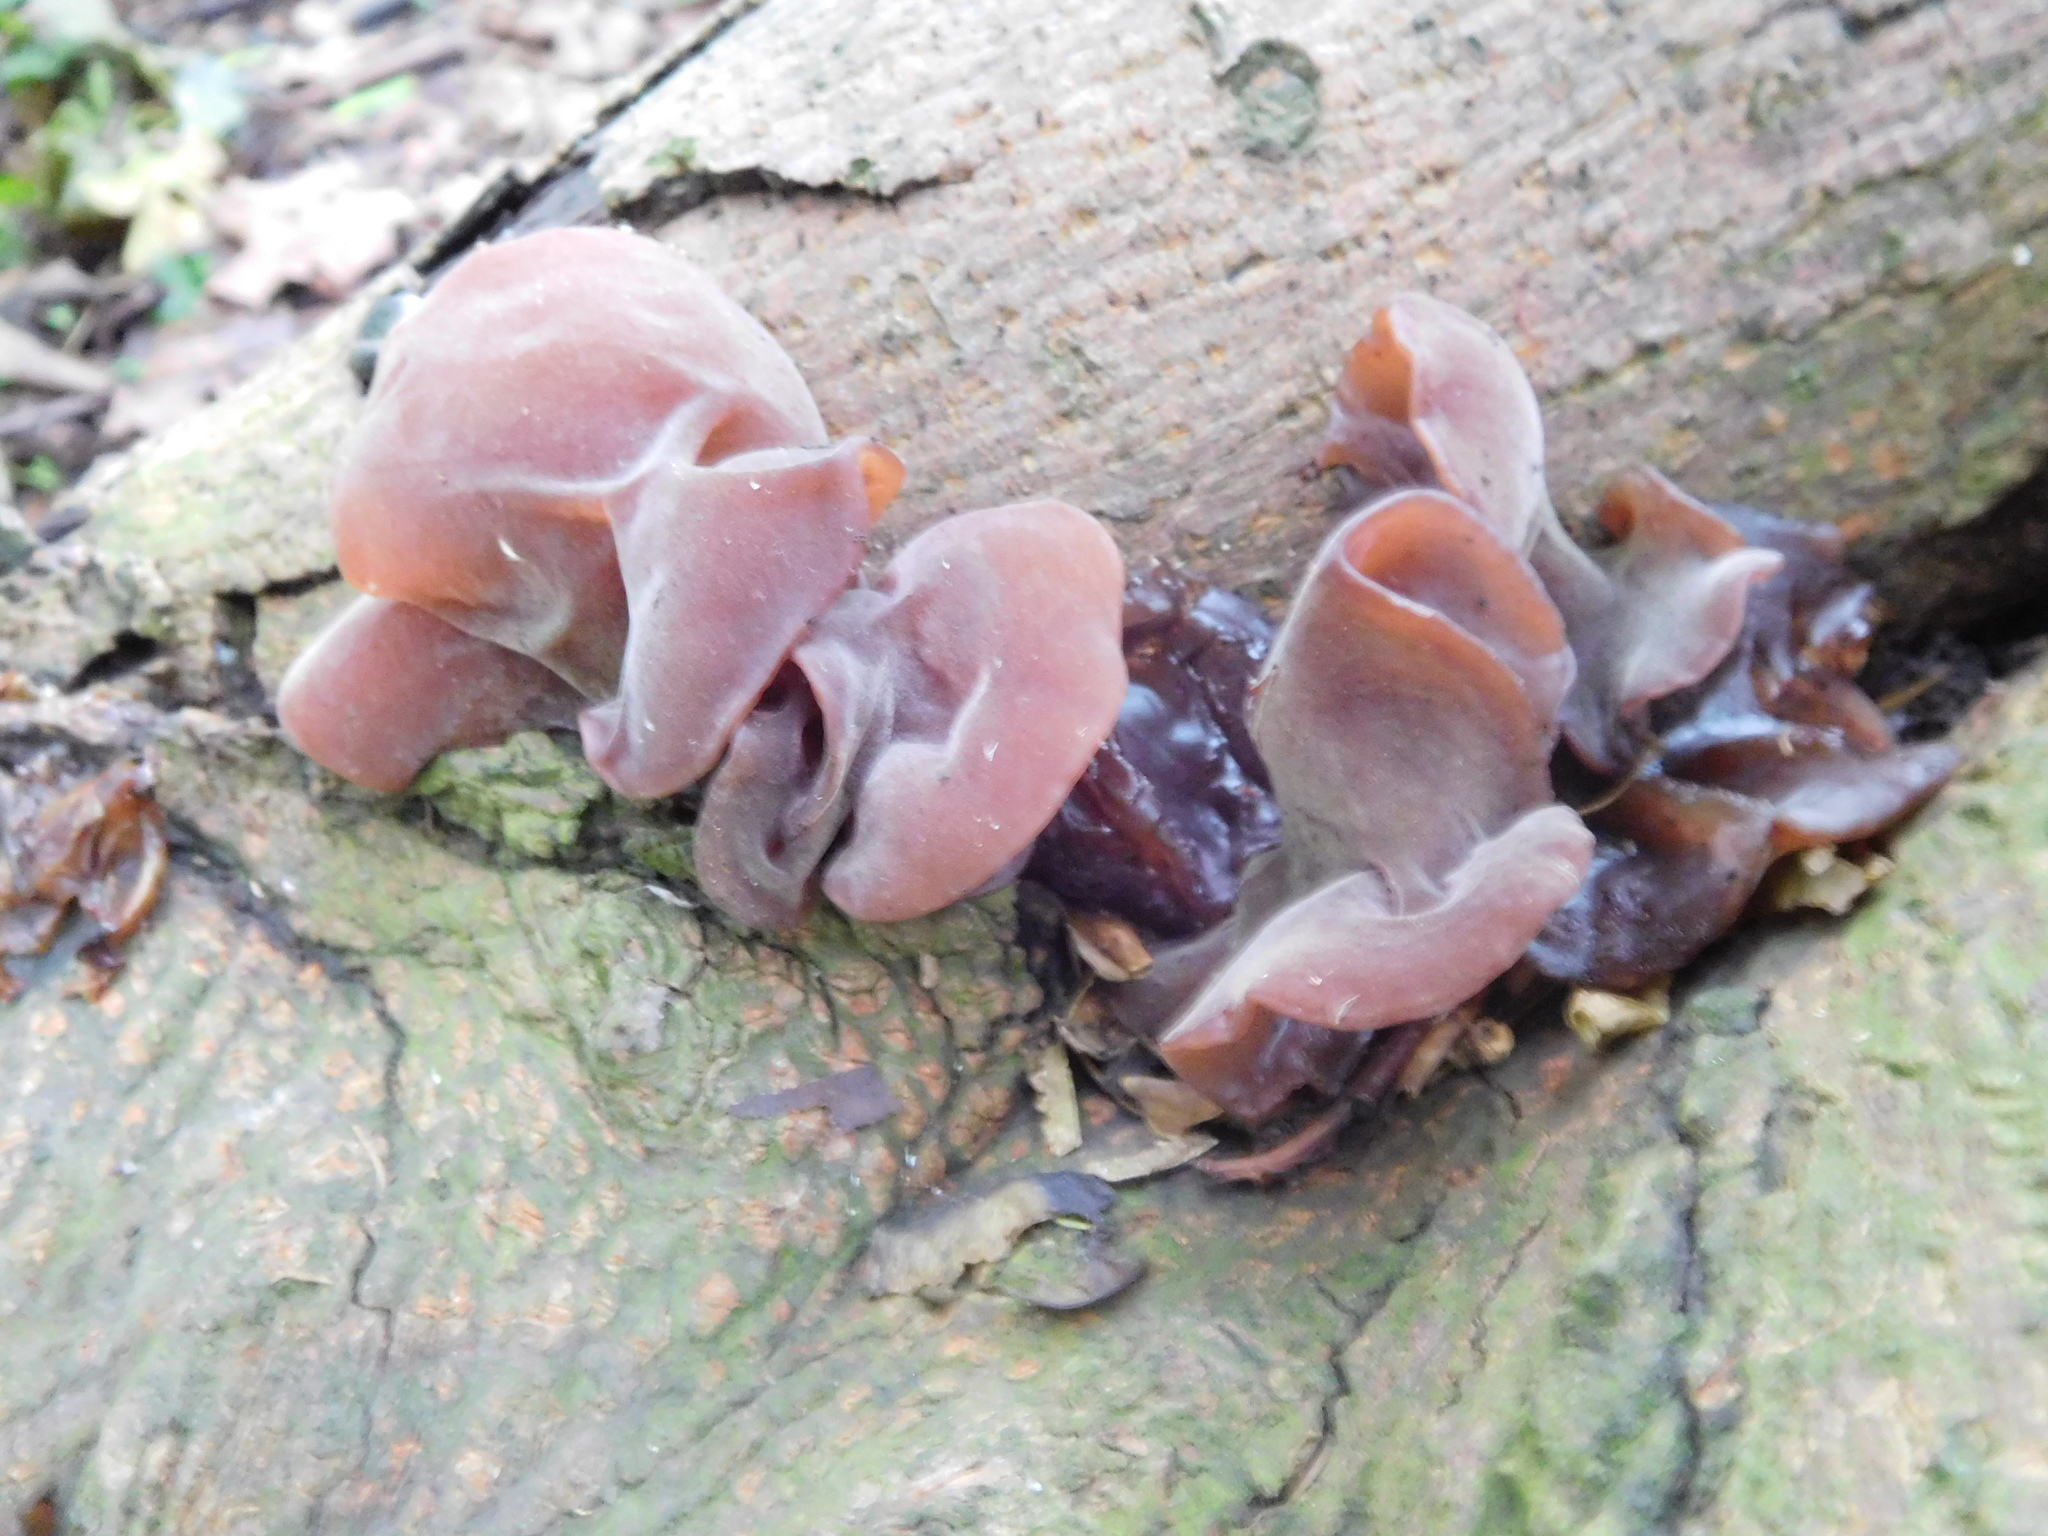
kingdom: Fungi
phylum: Basidiomycota
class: Agaricomycetes
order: Auriculariales
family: Auriculariaceae
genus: Auricularia
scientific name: Auricularia auricula-judae
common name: Jelly ear
